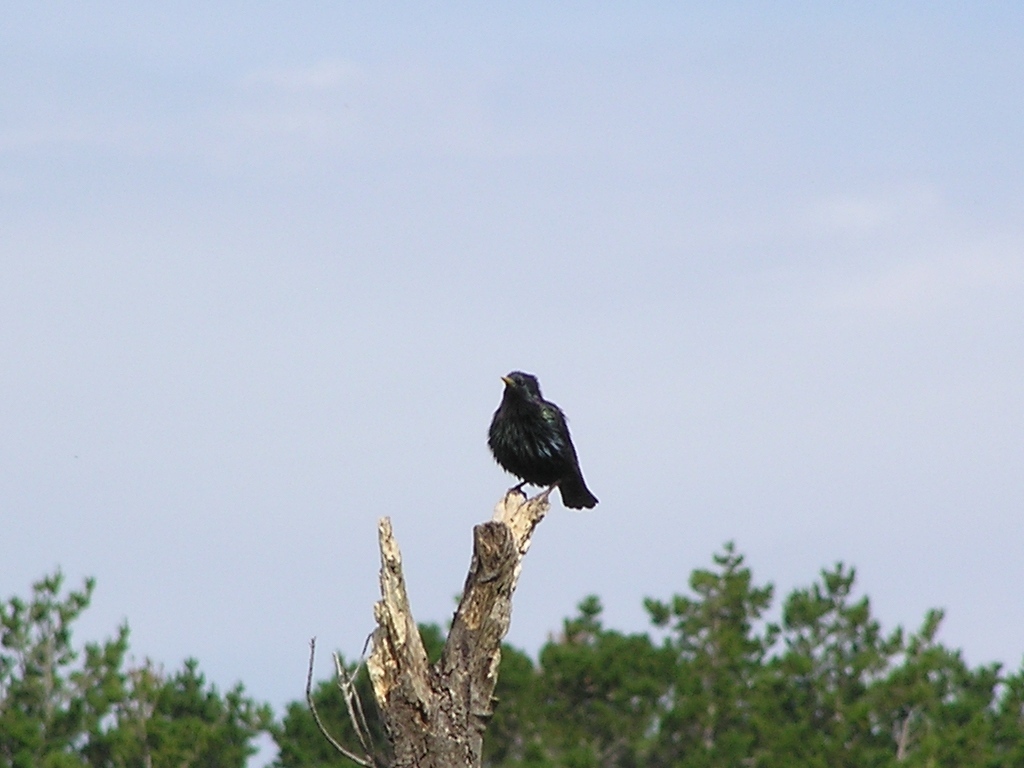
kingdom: Animalia
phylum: Chordata
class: Aves
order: Passeriformes
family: Sturnidae
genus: Sturnus
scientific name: Sturnus vulgaris
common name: Common starling
